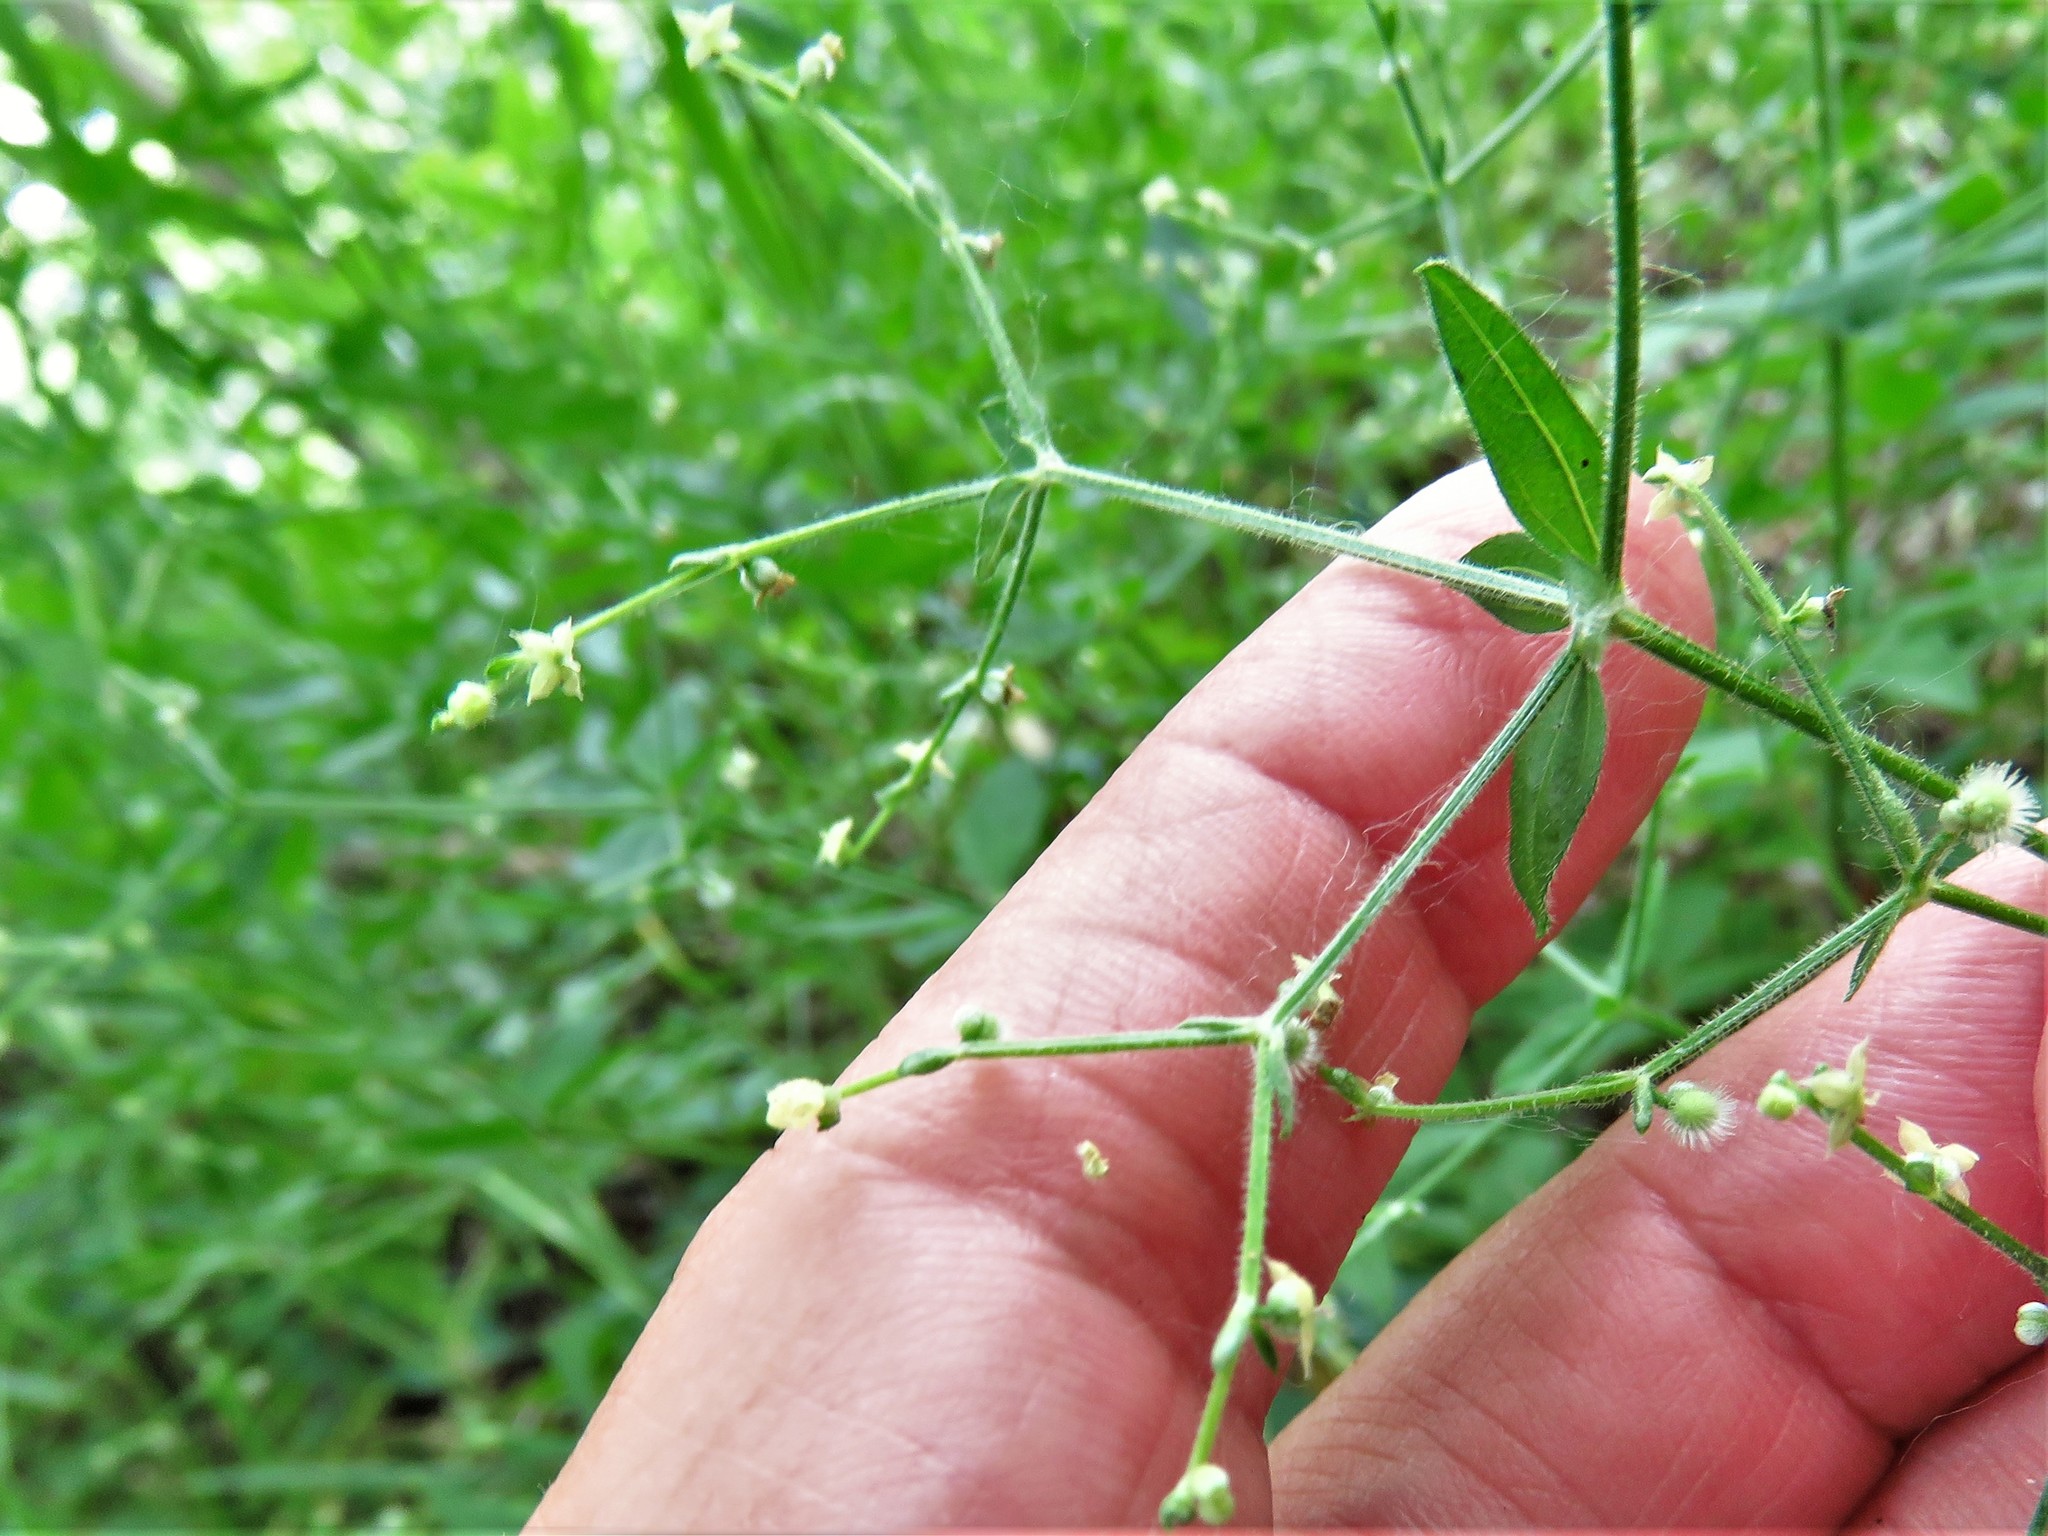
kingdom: Plantae
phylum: Tracheophyta
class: Magnoliopsida
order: Gentianales
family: Rubiaceae
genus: Galium
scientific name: Galium circaezans
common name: Forest bedstraw
